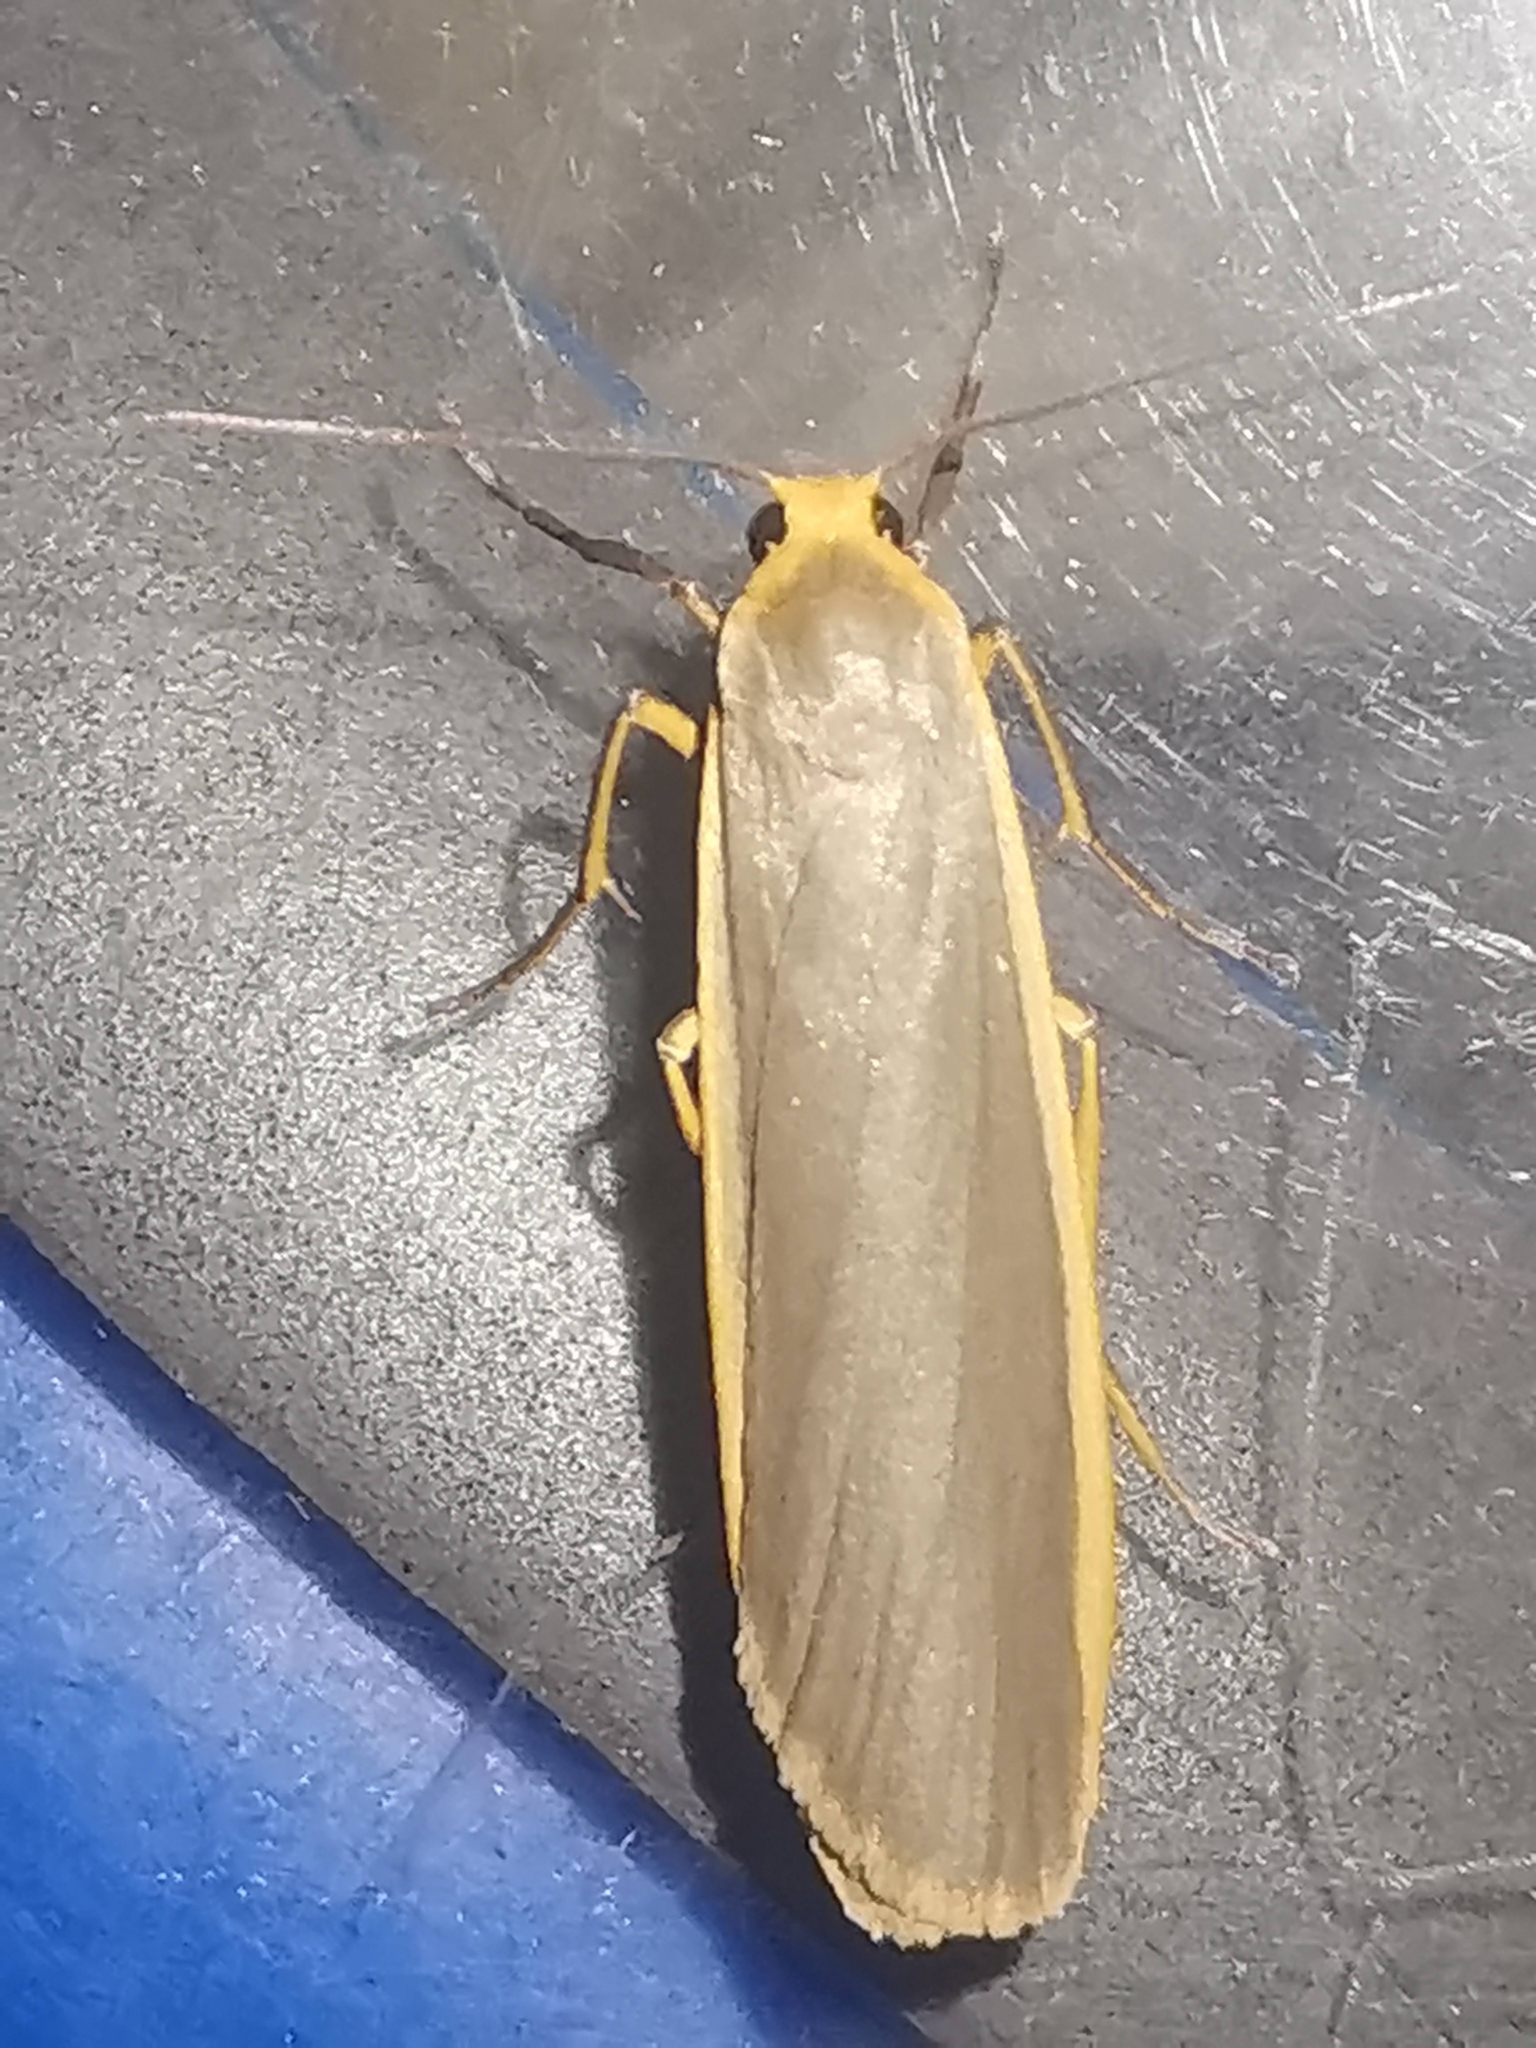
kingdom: Animalia
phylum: Arthropoda
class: Insecta
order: Lepidoptera
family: Erebidae
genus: Nyea
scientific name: Nyea lurideola
